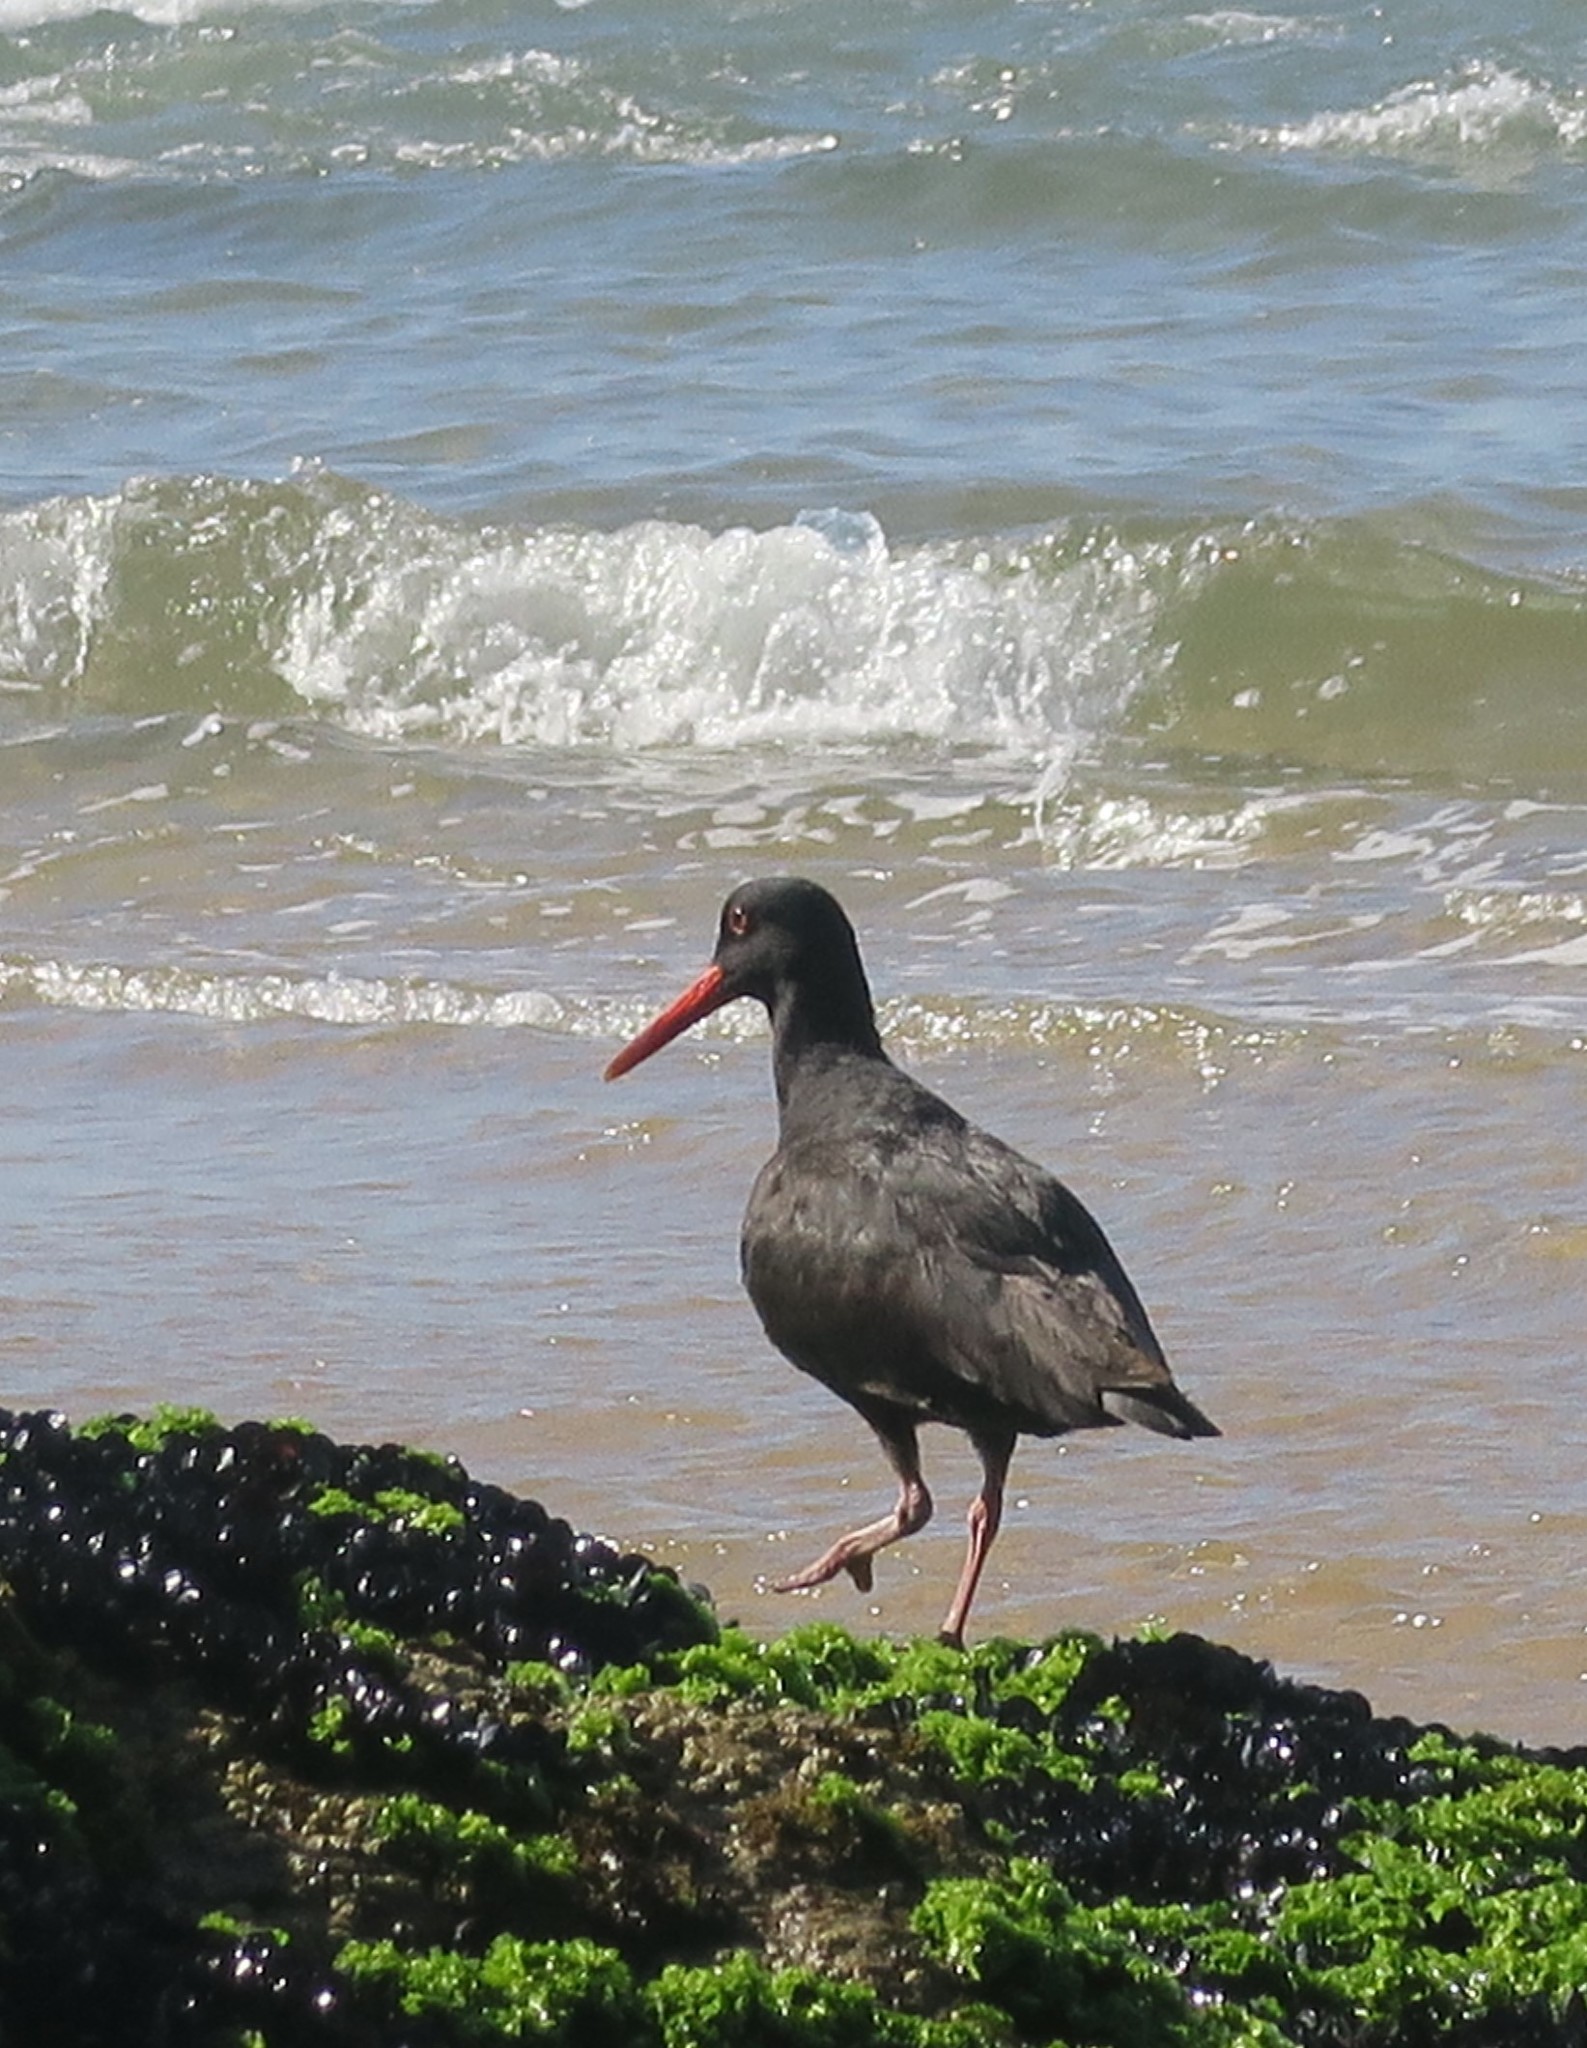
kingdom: Animalia
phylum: Chordata
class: Aves
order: Charadriiformes
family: Haematopodidae
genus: Haematopus
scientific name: Haematopus moquini
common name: African oystercatcher
